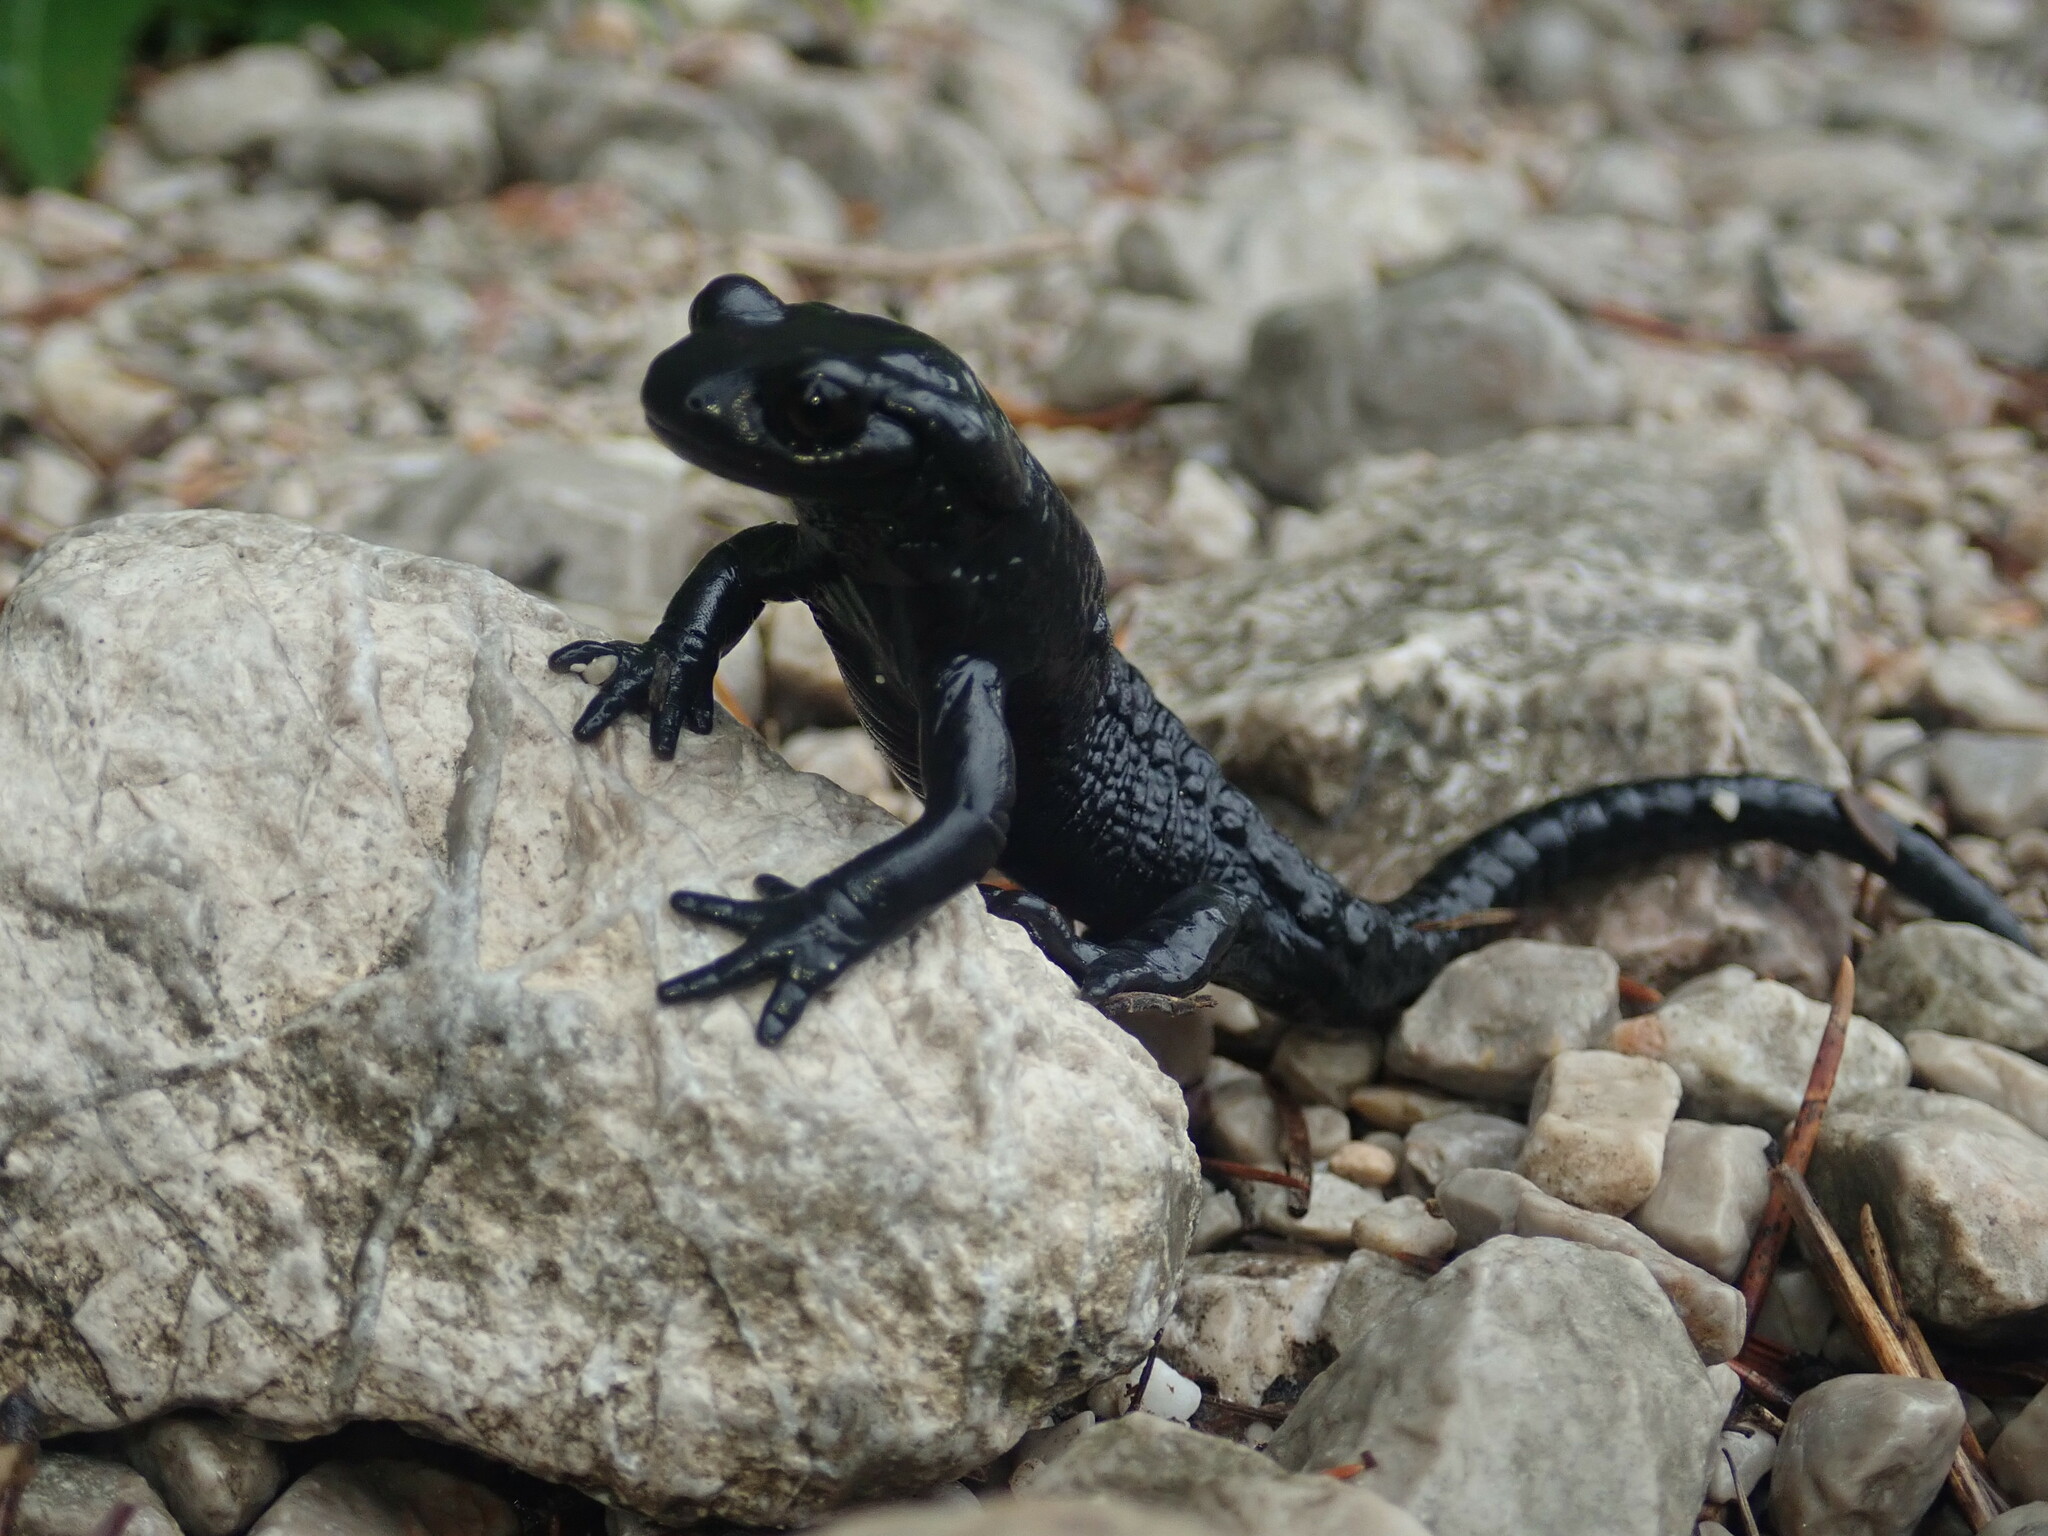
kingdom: Animalia
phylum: Chordata
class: Amphibia
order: Caudata
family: Salamandridae
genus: Salamandra
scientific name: Salamandra atra
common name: Alpine salamander
